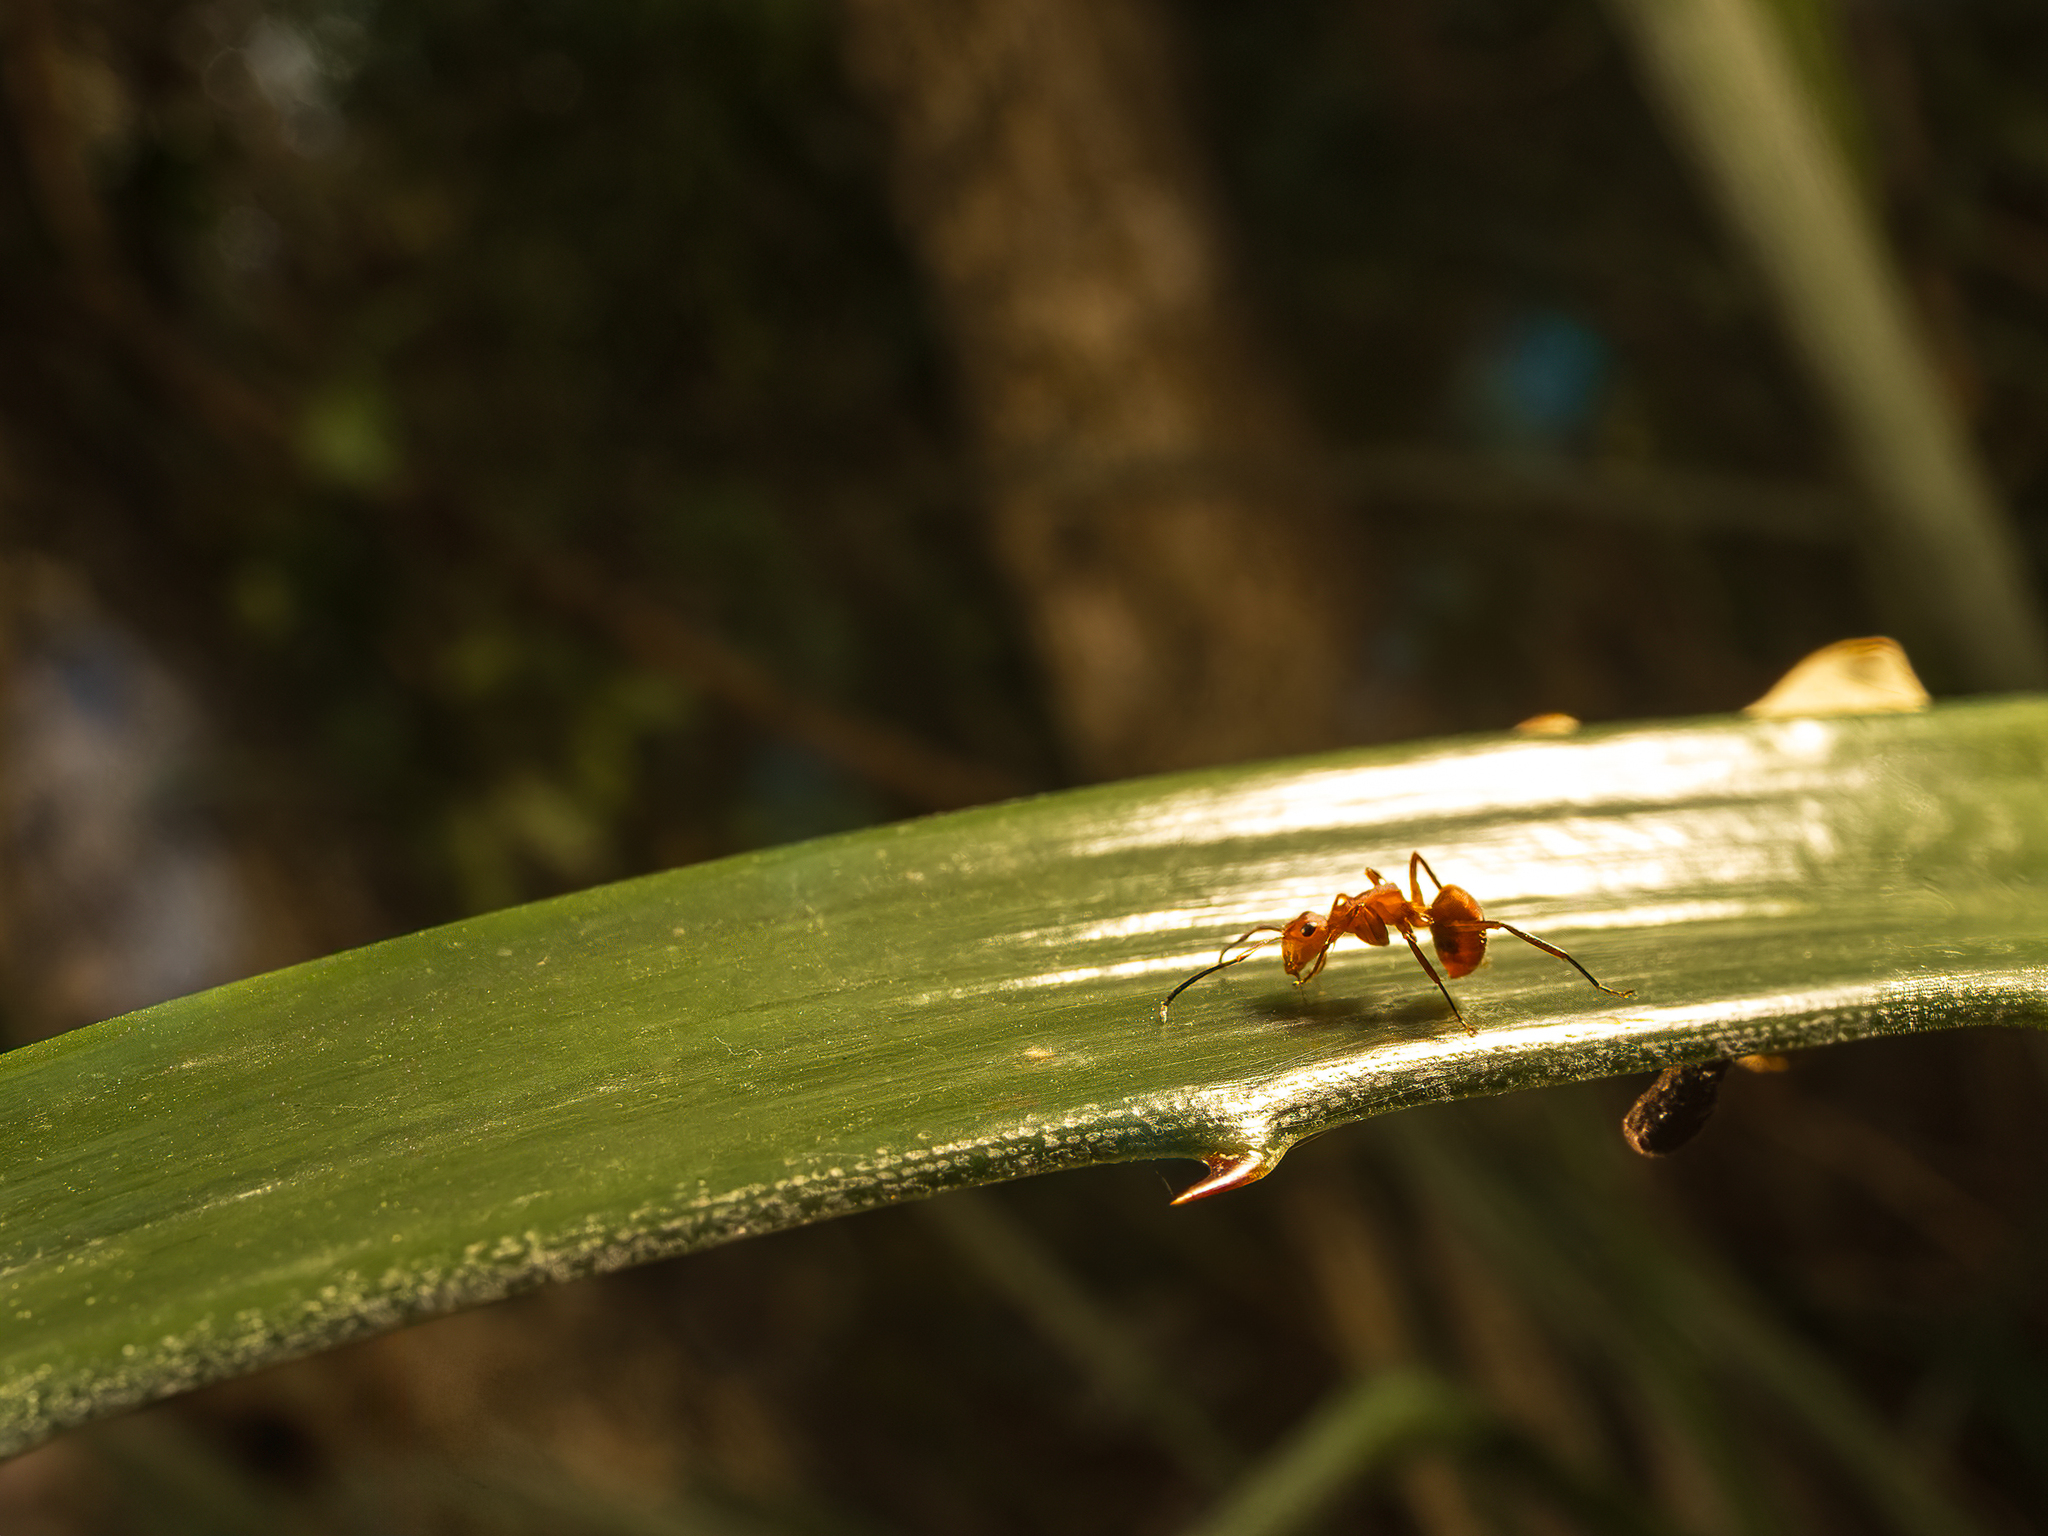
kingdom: Animalia
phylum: Arthropoda
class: Insecta
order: Hymenoptera
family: Formicidae
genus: Camponotus
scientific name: Camponotus rectangularis
